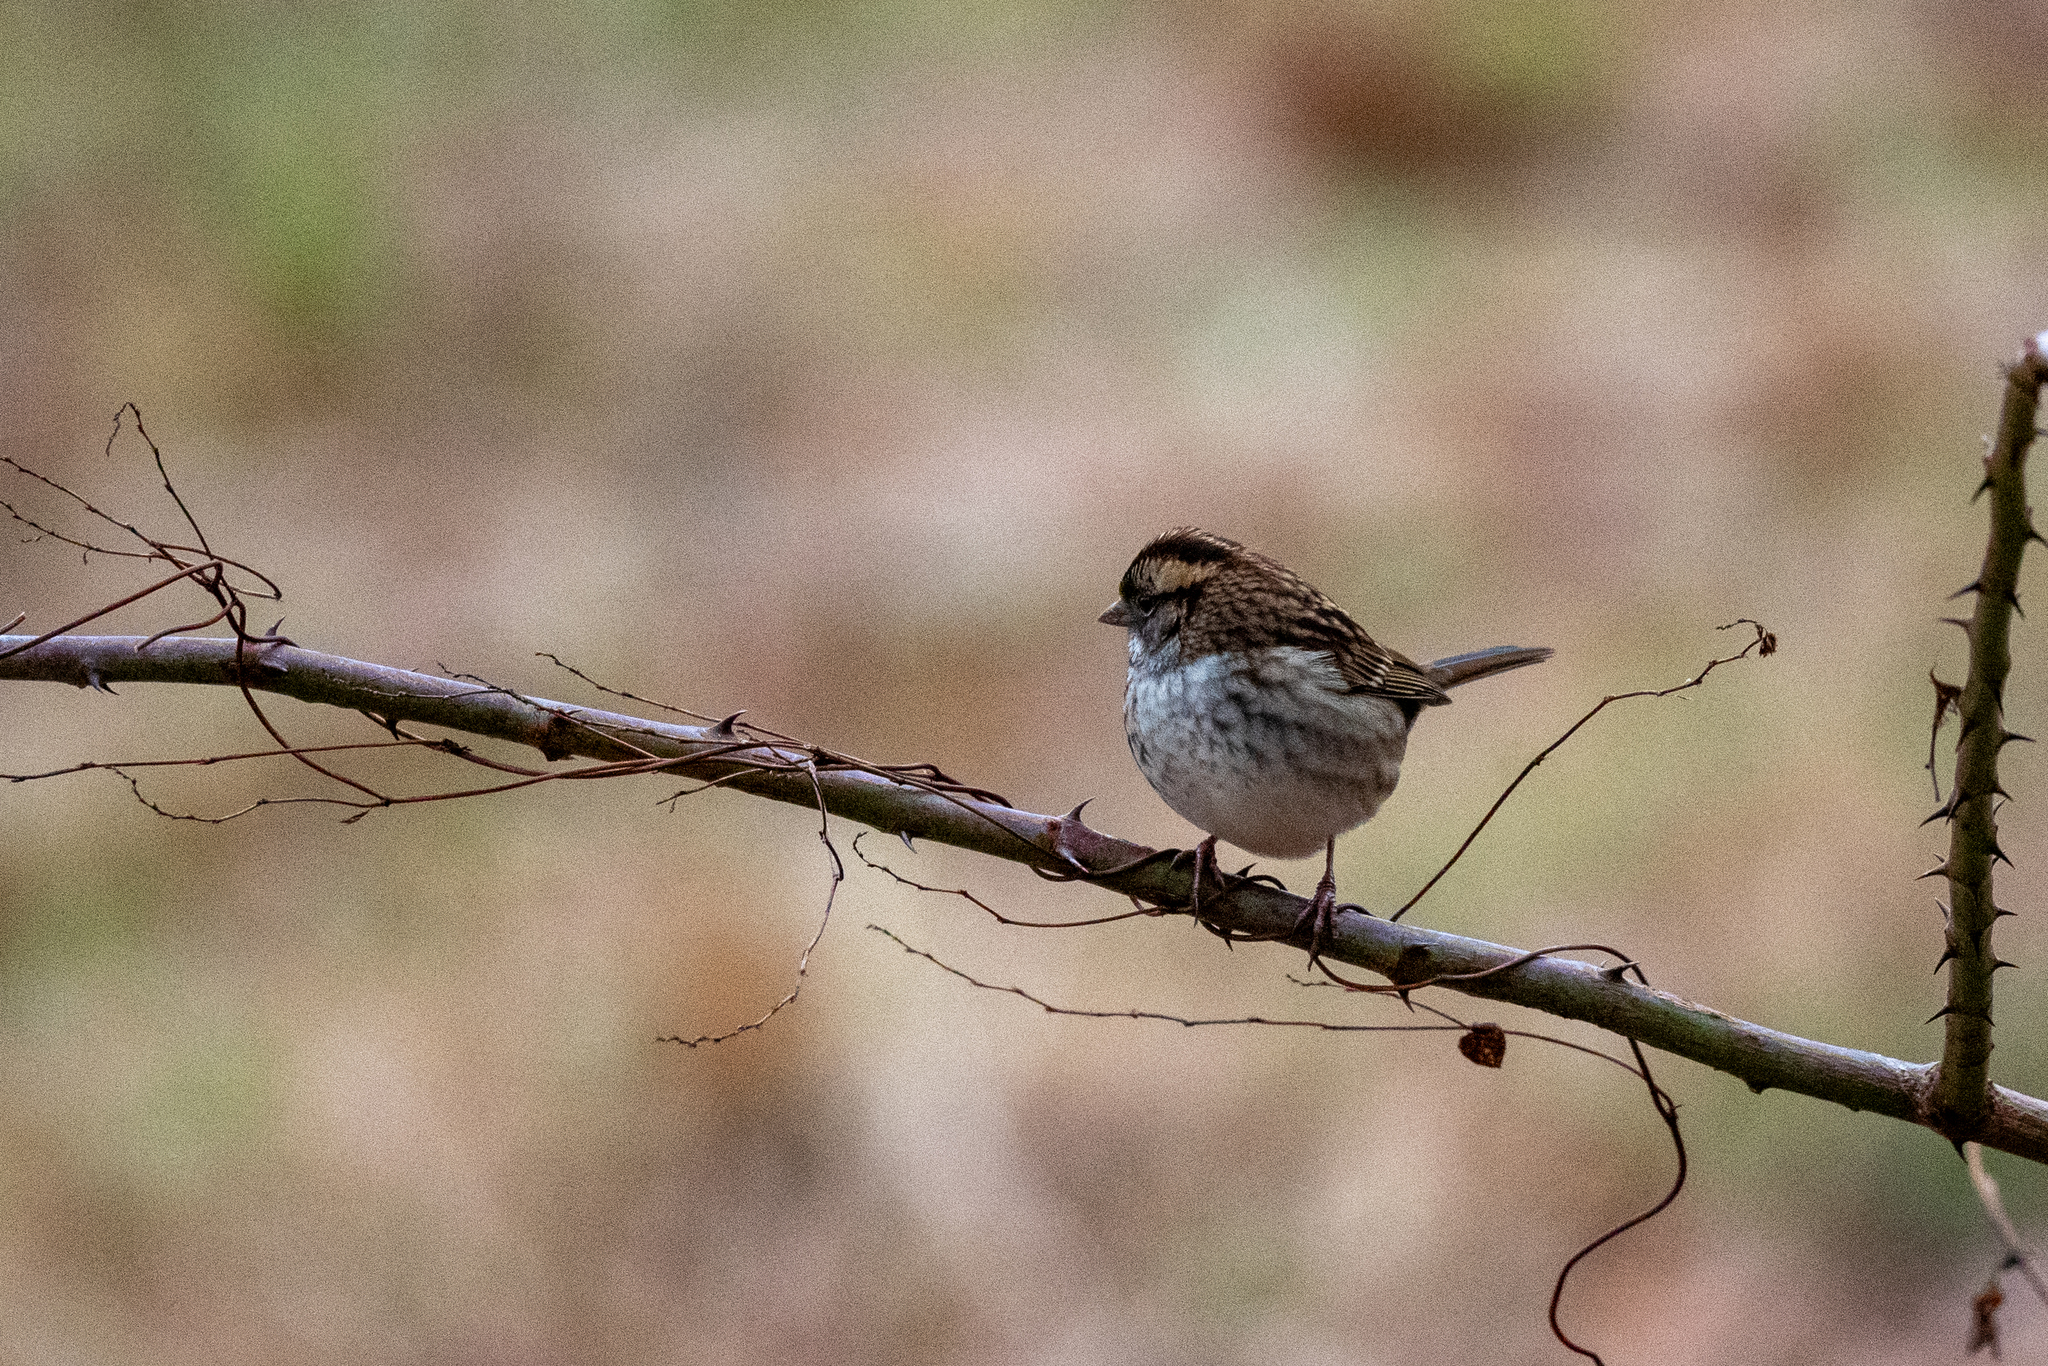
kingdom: Animalia
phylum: Chordata
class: Aves
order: Passeriformes
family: Passerellidae
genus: Zonotrichia
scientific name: Zonotrichia albicollis
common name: White-throated sparrow
